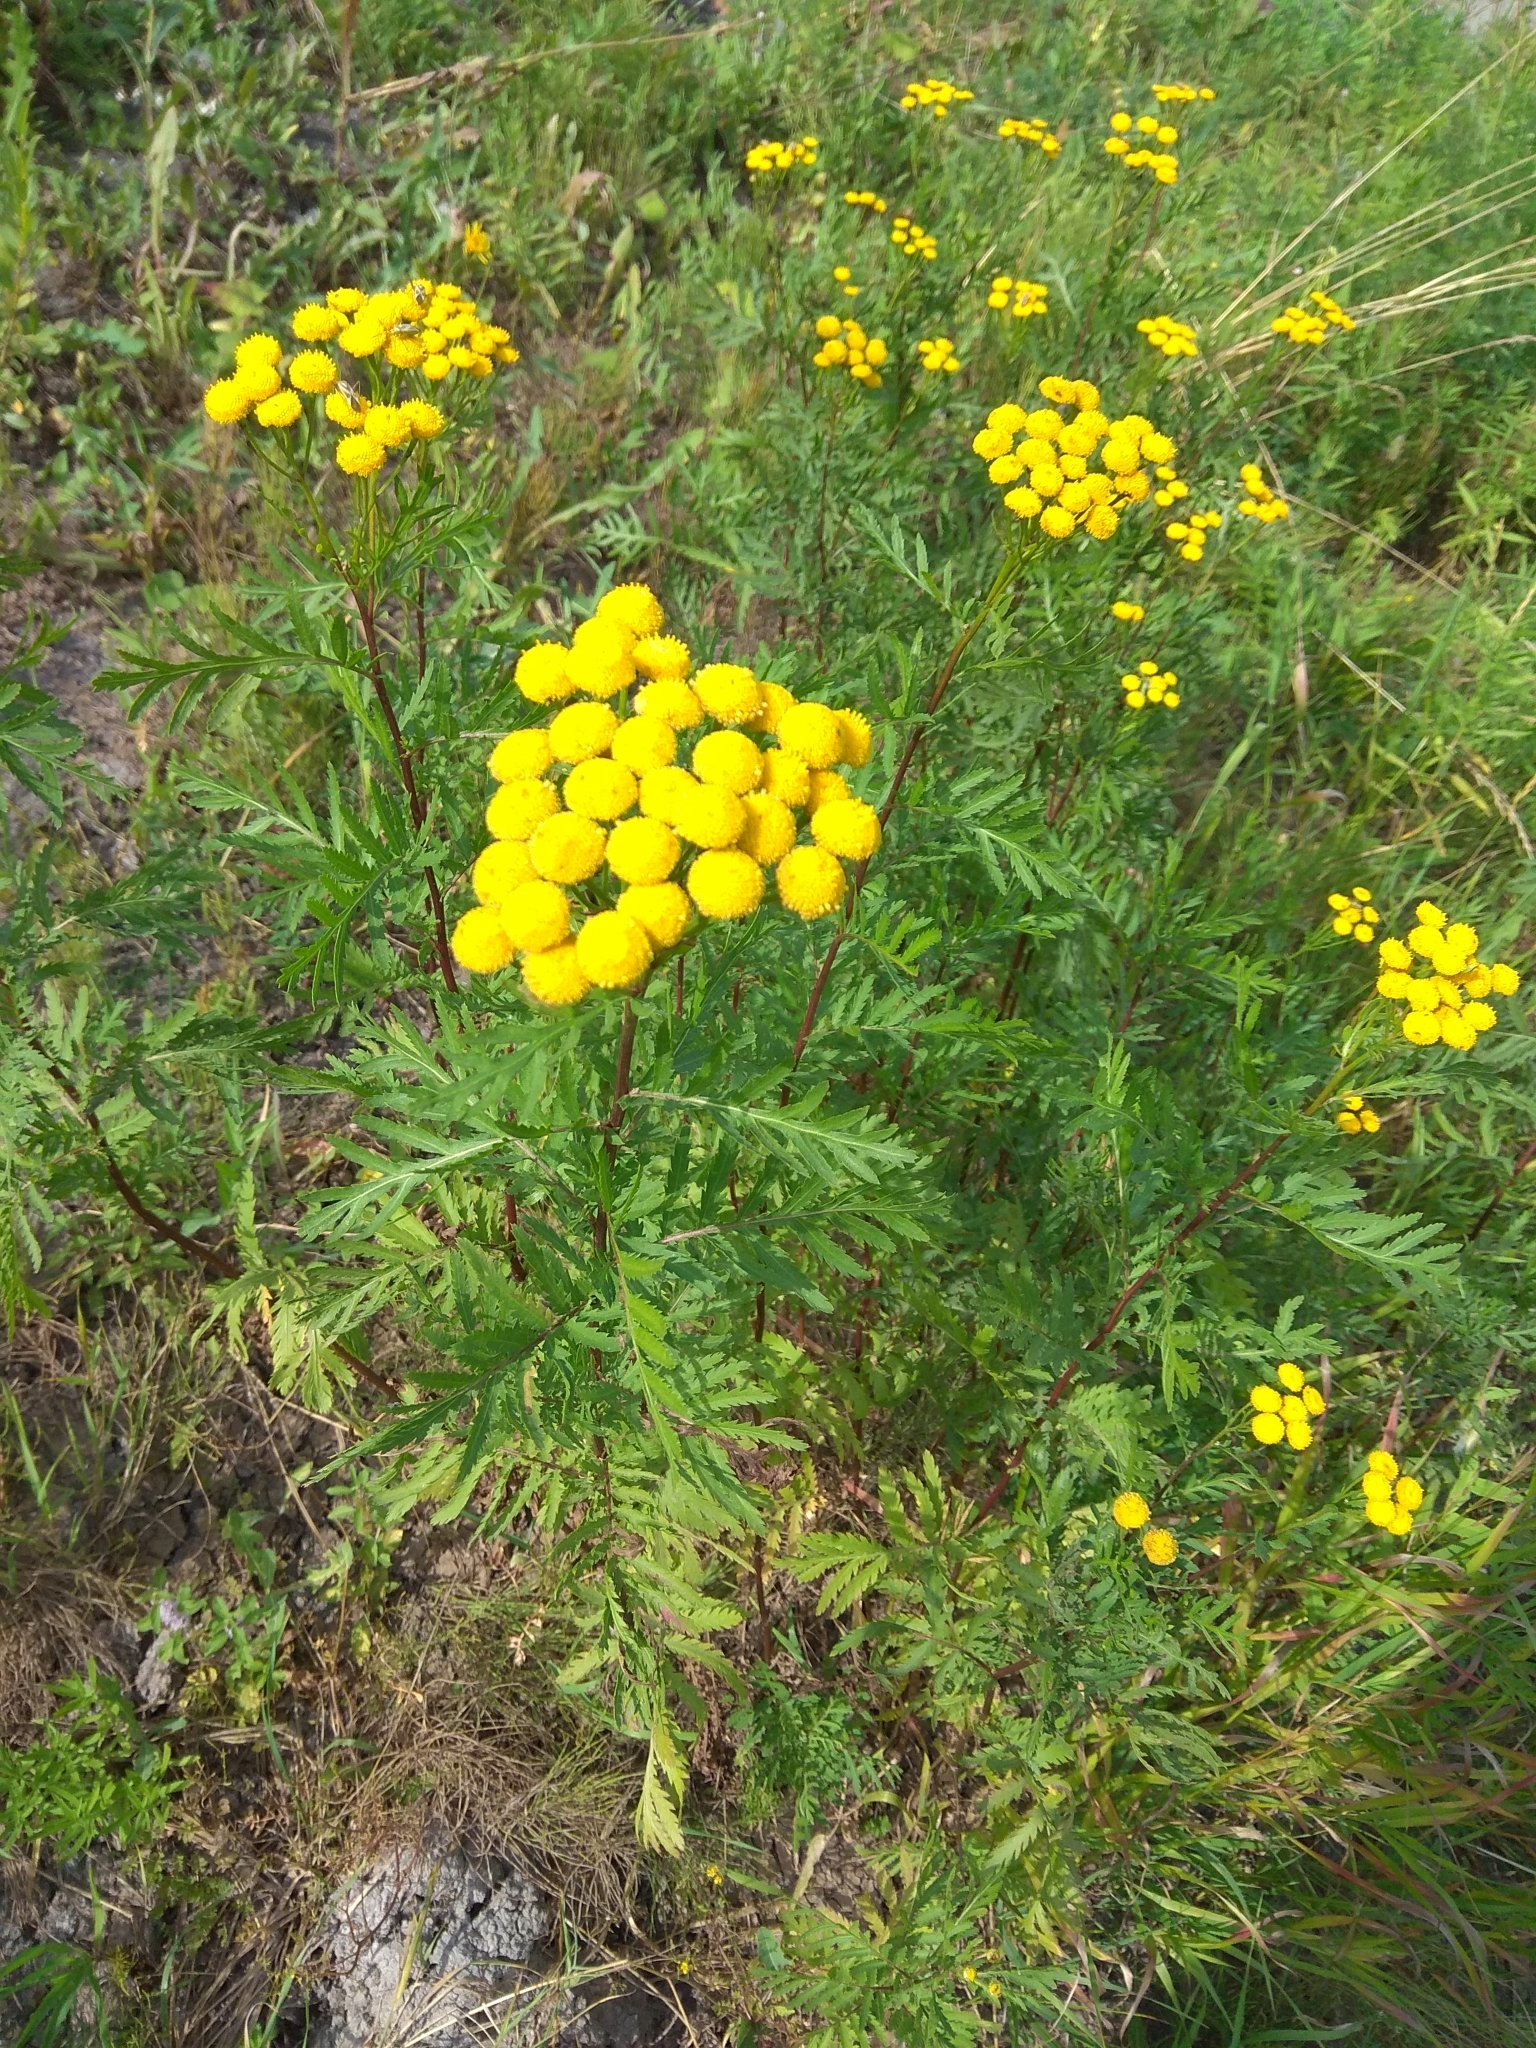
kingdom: Plantae
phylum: Tracheophyta
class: Magnoliopsida
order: Asterales
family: Asteraceae
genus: Tanacetum
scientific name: Tanacetum vulgare
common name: Common tansy
